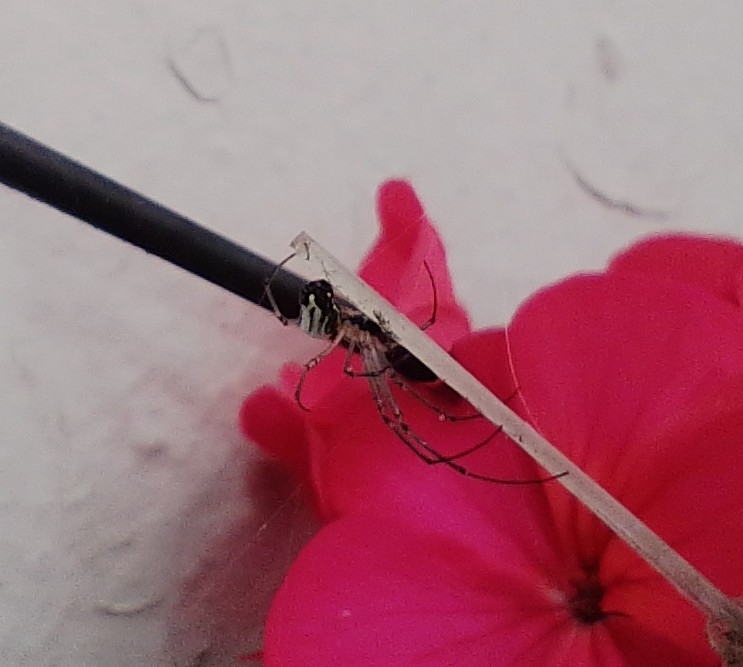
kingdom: Animalia
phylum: Arthropoda
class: Arachnida
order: Araneae
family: Tetragnathidae
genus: Leucauge
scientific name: Leucauge volupis
